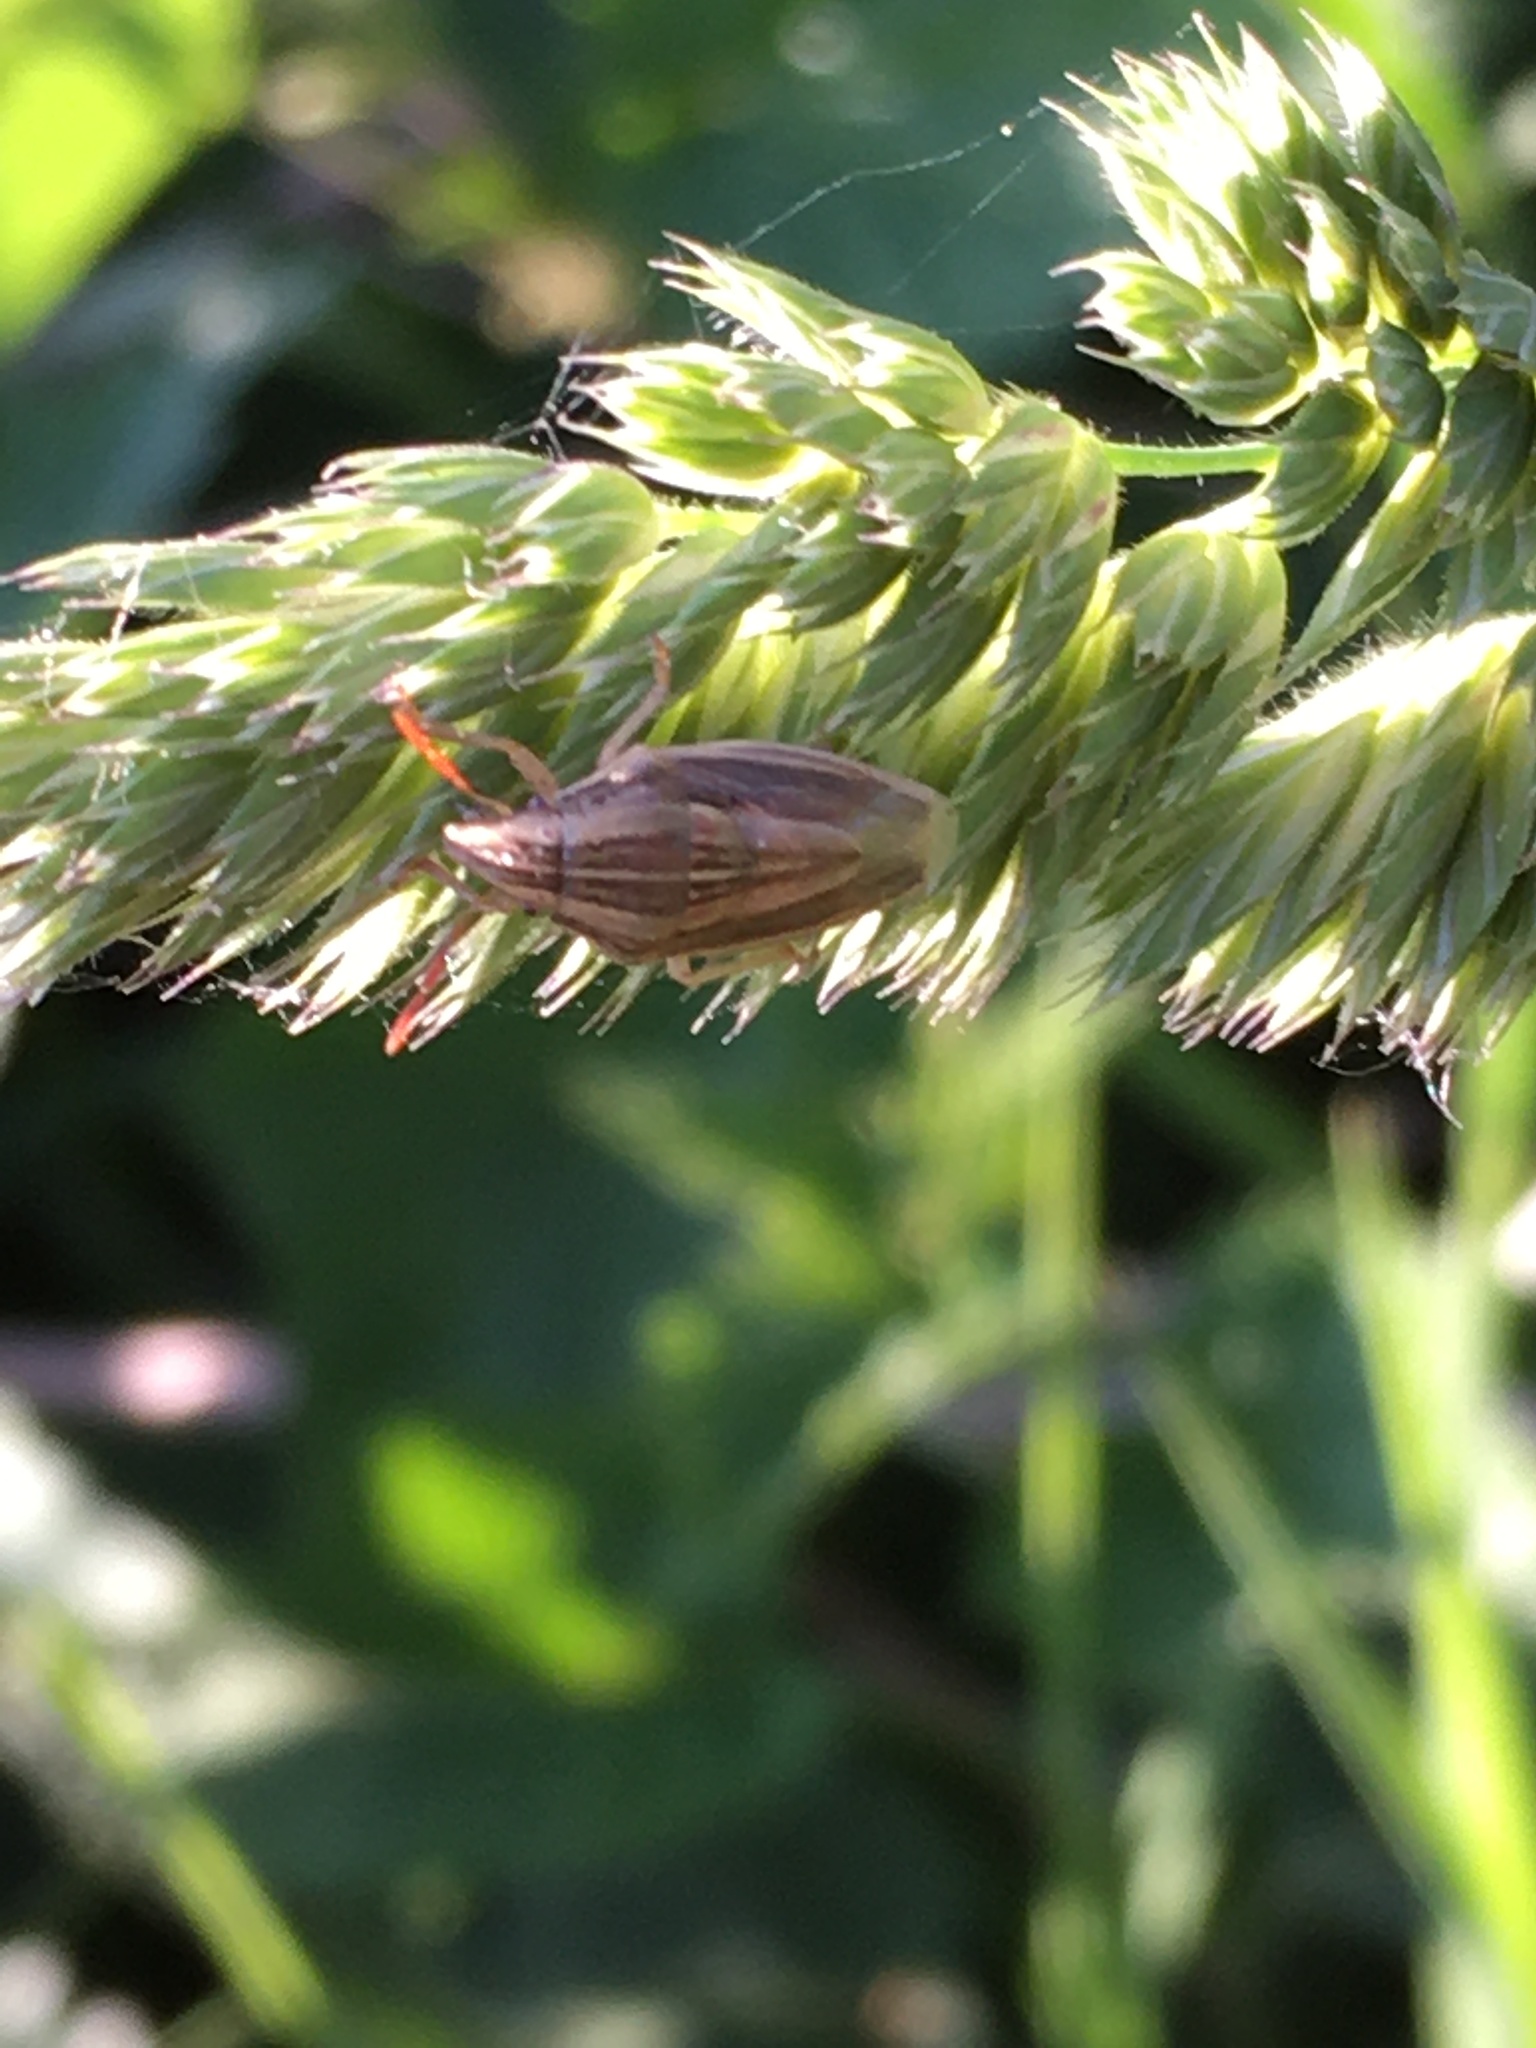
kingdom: Animalia
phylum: Arthropoda
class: Insecta
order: Hemiptera
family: Pentatomidae
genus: Aelia
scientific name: Aelia acuminata
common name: Bishop's mitre
